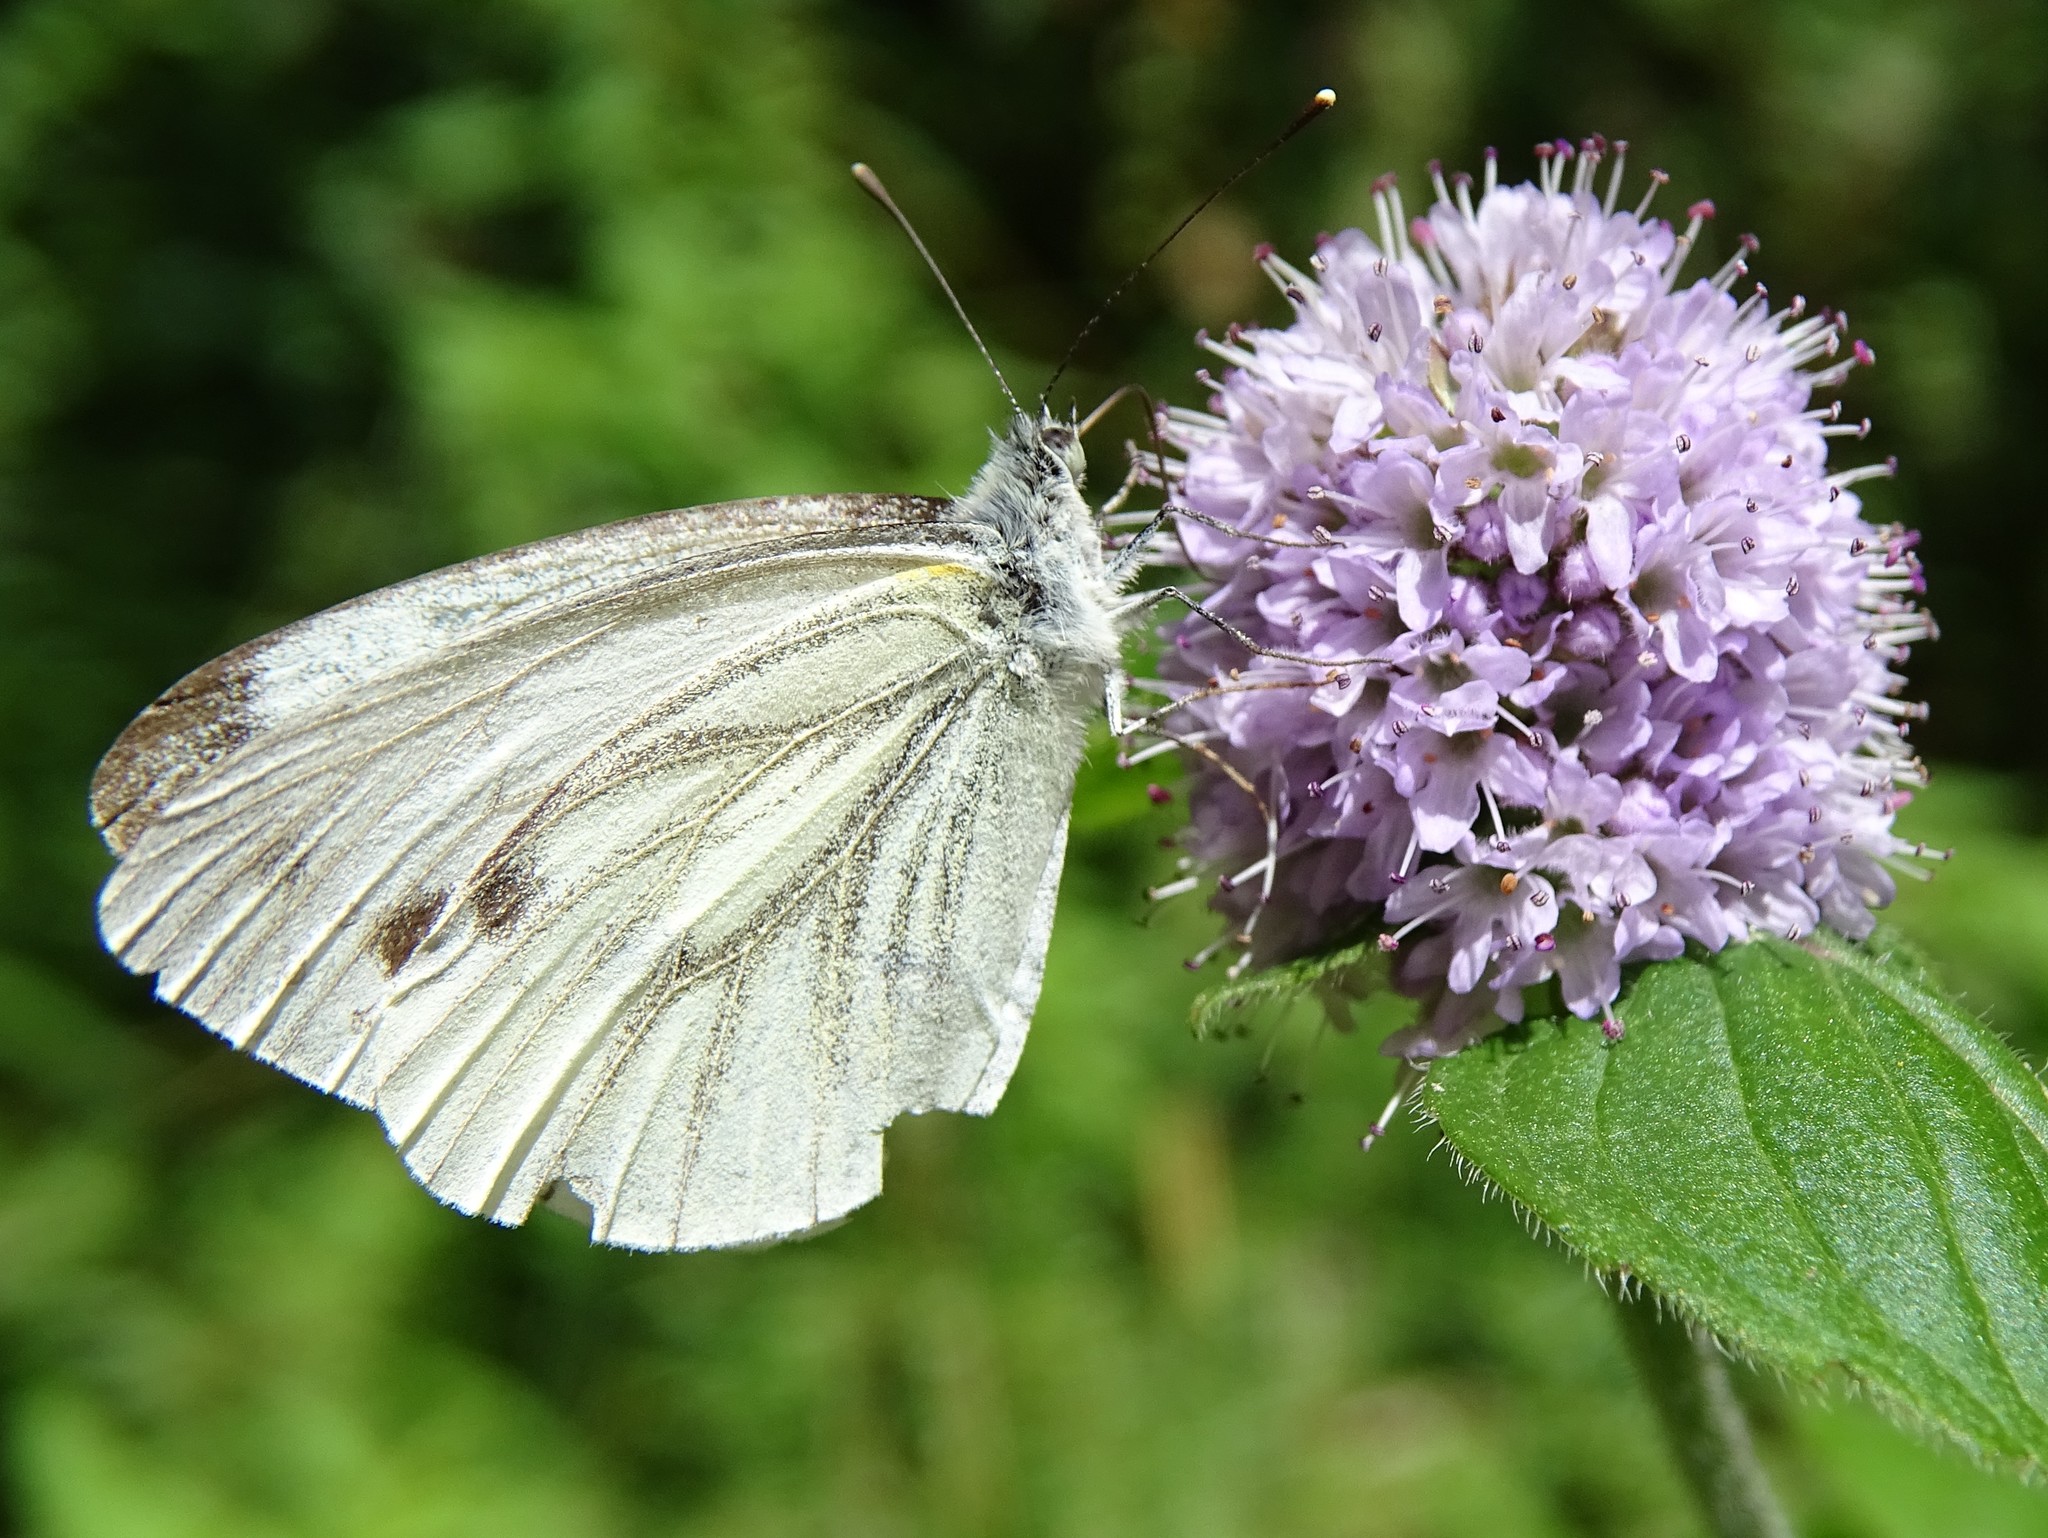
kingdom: Animalia
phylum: Arthropoda
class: Insecta
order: Lepidoptera
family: Pieridae
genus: Pieris
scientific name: Pieris napi
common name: Green-veined white
